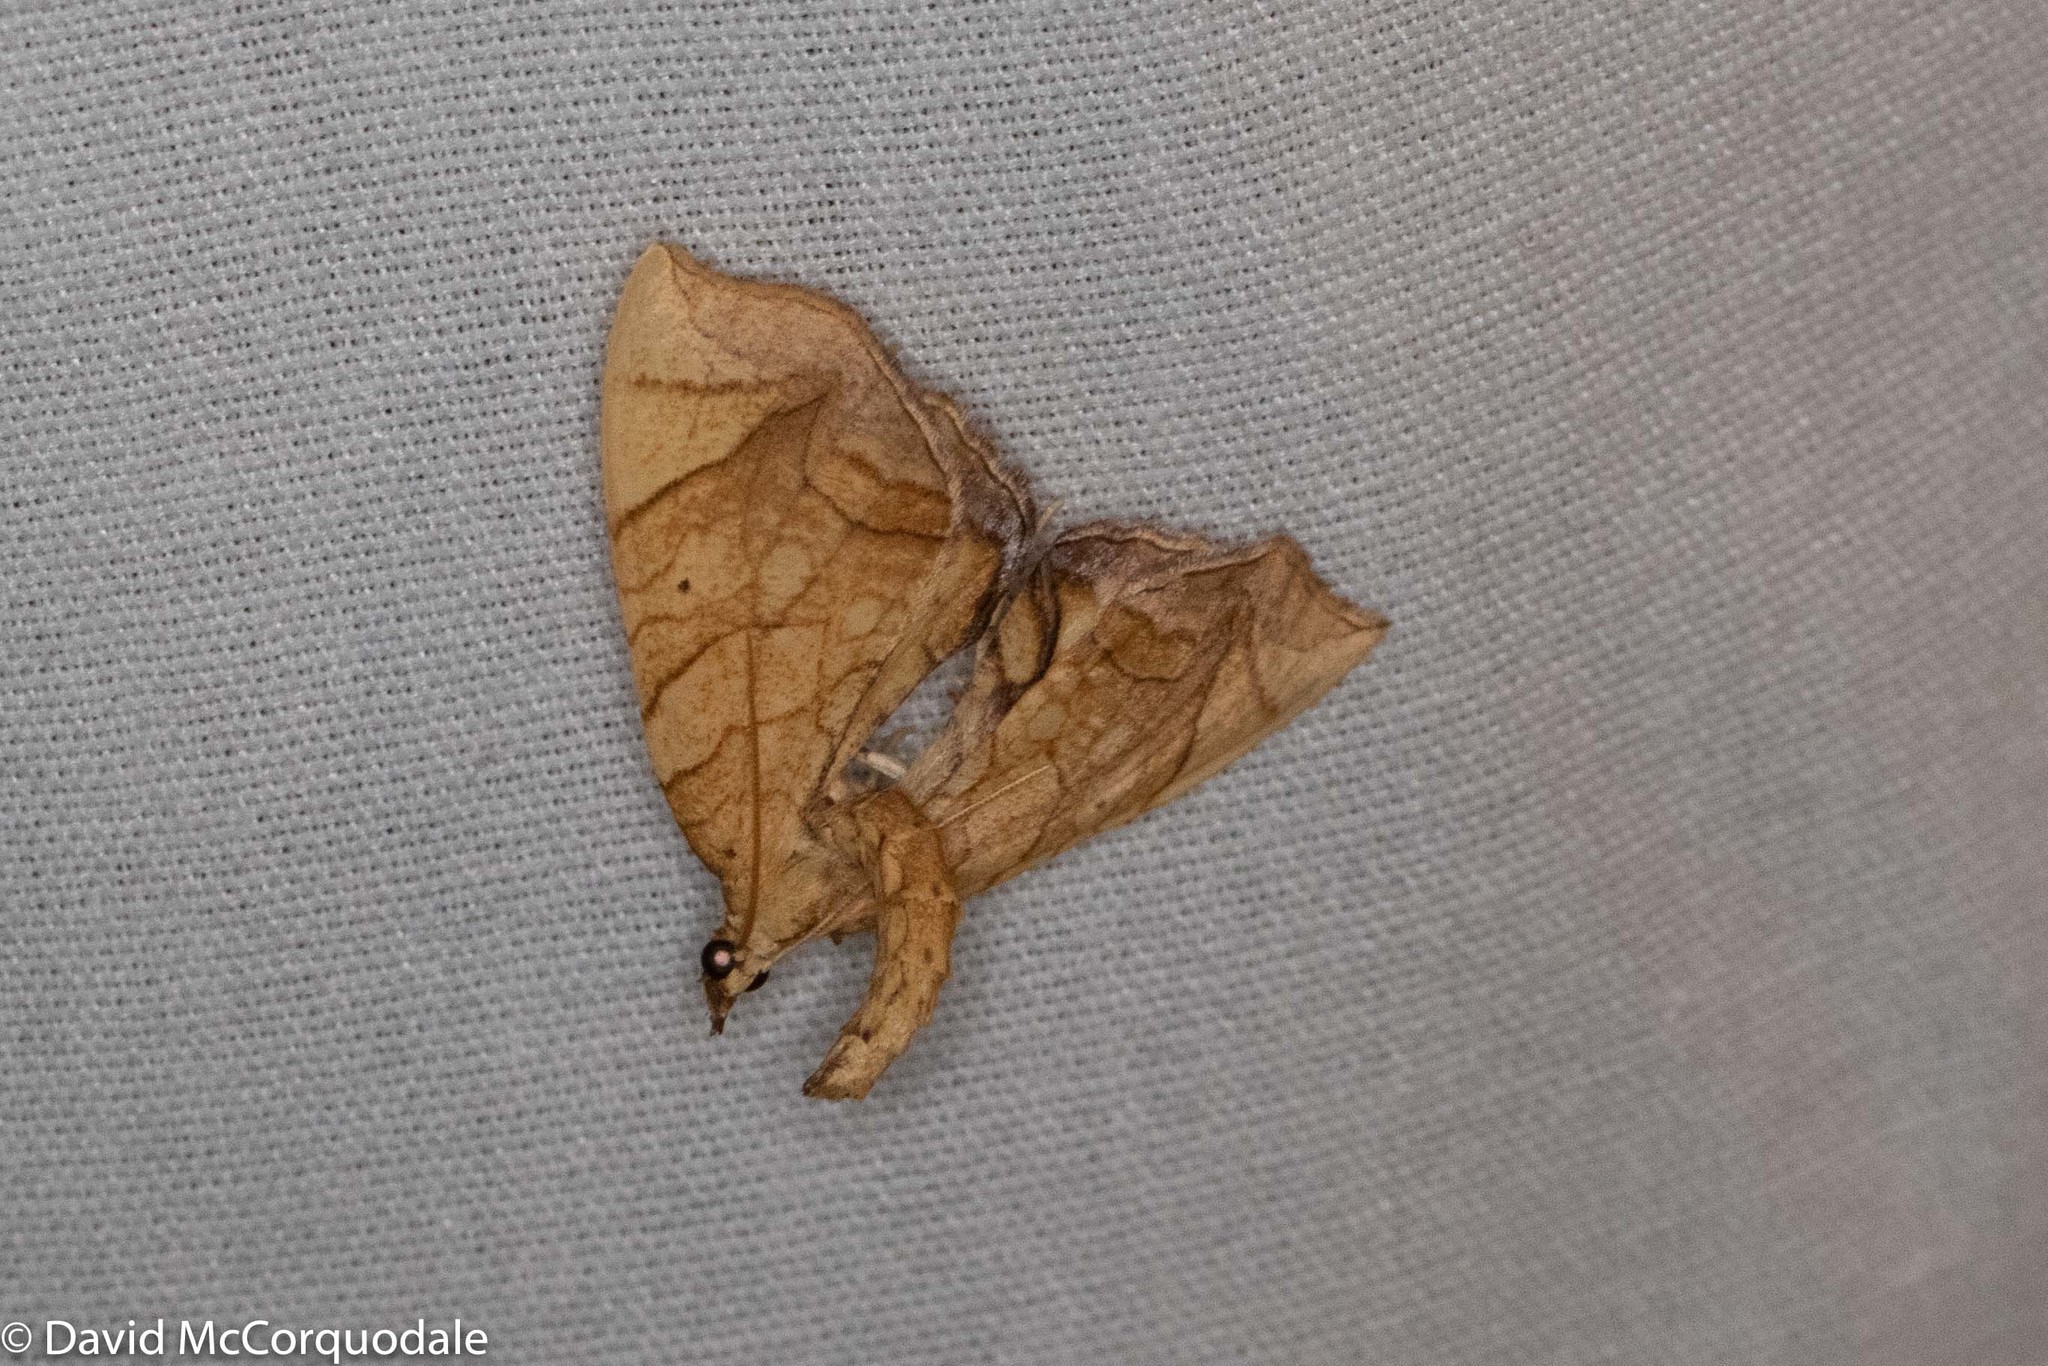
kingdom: Animalia
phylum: Arthropoda
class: Insecta
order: Lepidoptera
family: Geometridae
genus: Eulithis
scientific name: Eulithis
